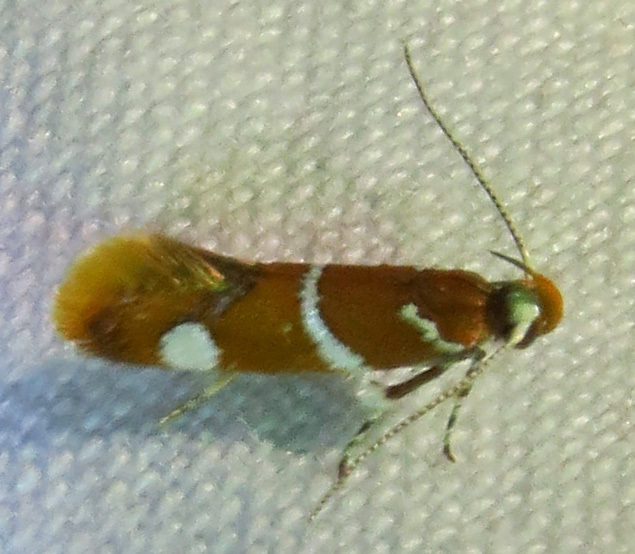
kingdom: Animalia
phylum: Arthropoda
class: Insecta
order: Lepidoptera
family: Oecophoridae
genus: Promalactis
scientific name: Promalactis suzukiella
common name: Moth
